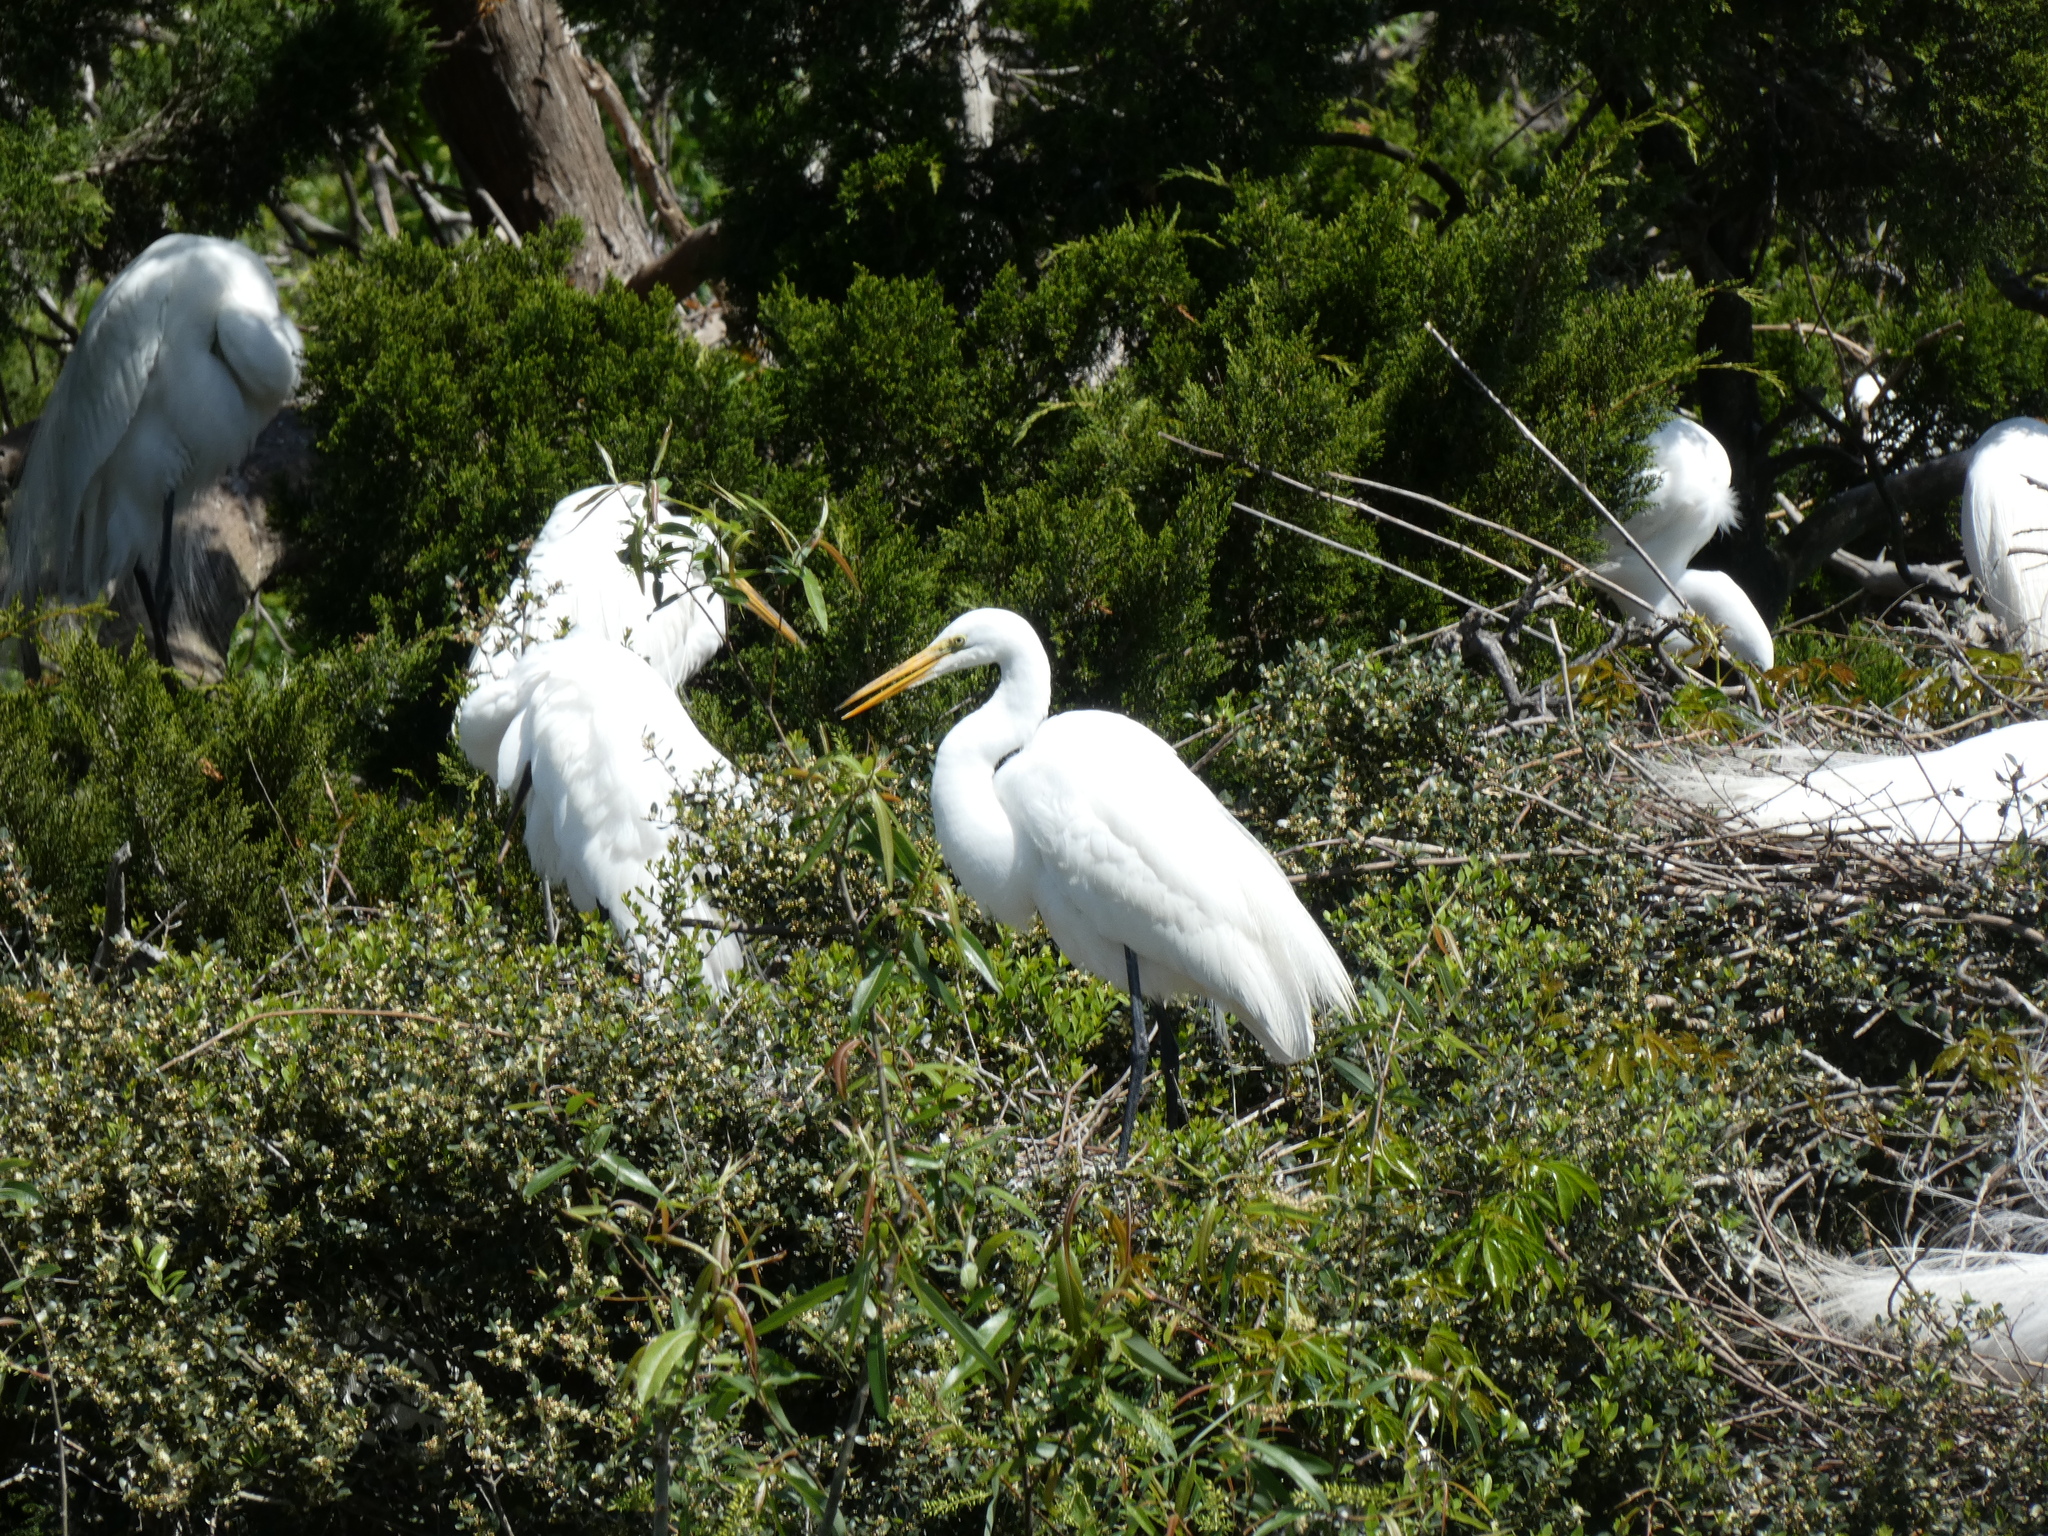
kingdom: Animalia
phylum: Chordata
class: Aves
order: Pelecaniformes
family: Ardeidae
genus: Ardea
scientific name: Ardea alba
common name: Great egret
